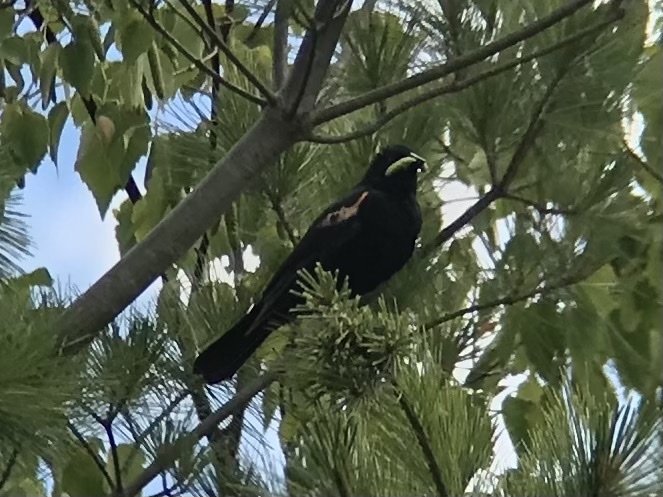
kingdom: Animalia
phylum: Chordata
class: Aves
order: Passeriformes
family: Icteridae
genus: Agelaius
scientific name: Agelaius phoeniceus
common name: Red-winged blackbird
